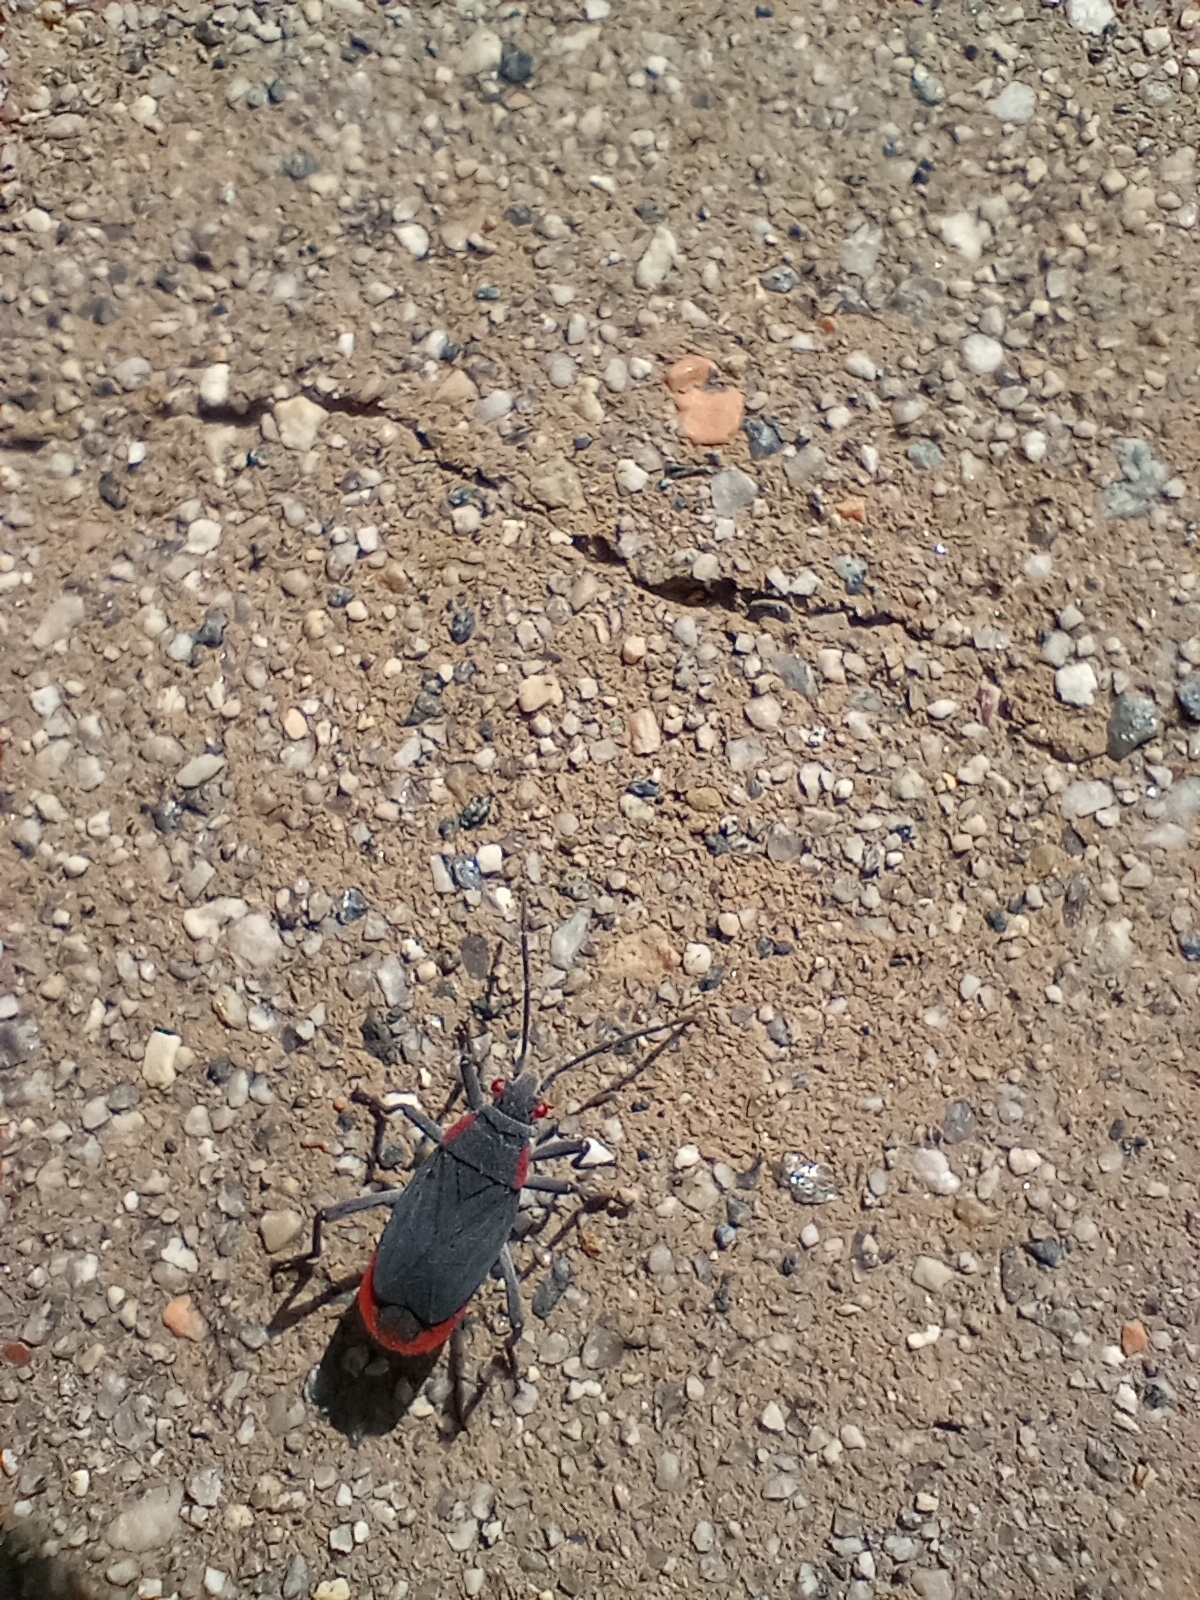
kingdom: Animalia
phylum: Arthropoda
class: Insecta
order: Hemiptera
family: Rhopalidae
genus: Jadera
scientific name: Jadera haematoloma
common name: Red-shouldered bug
